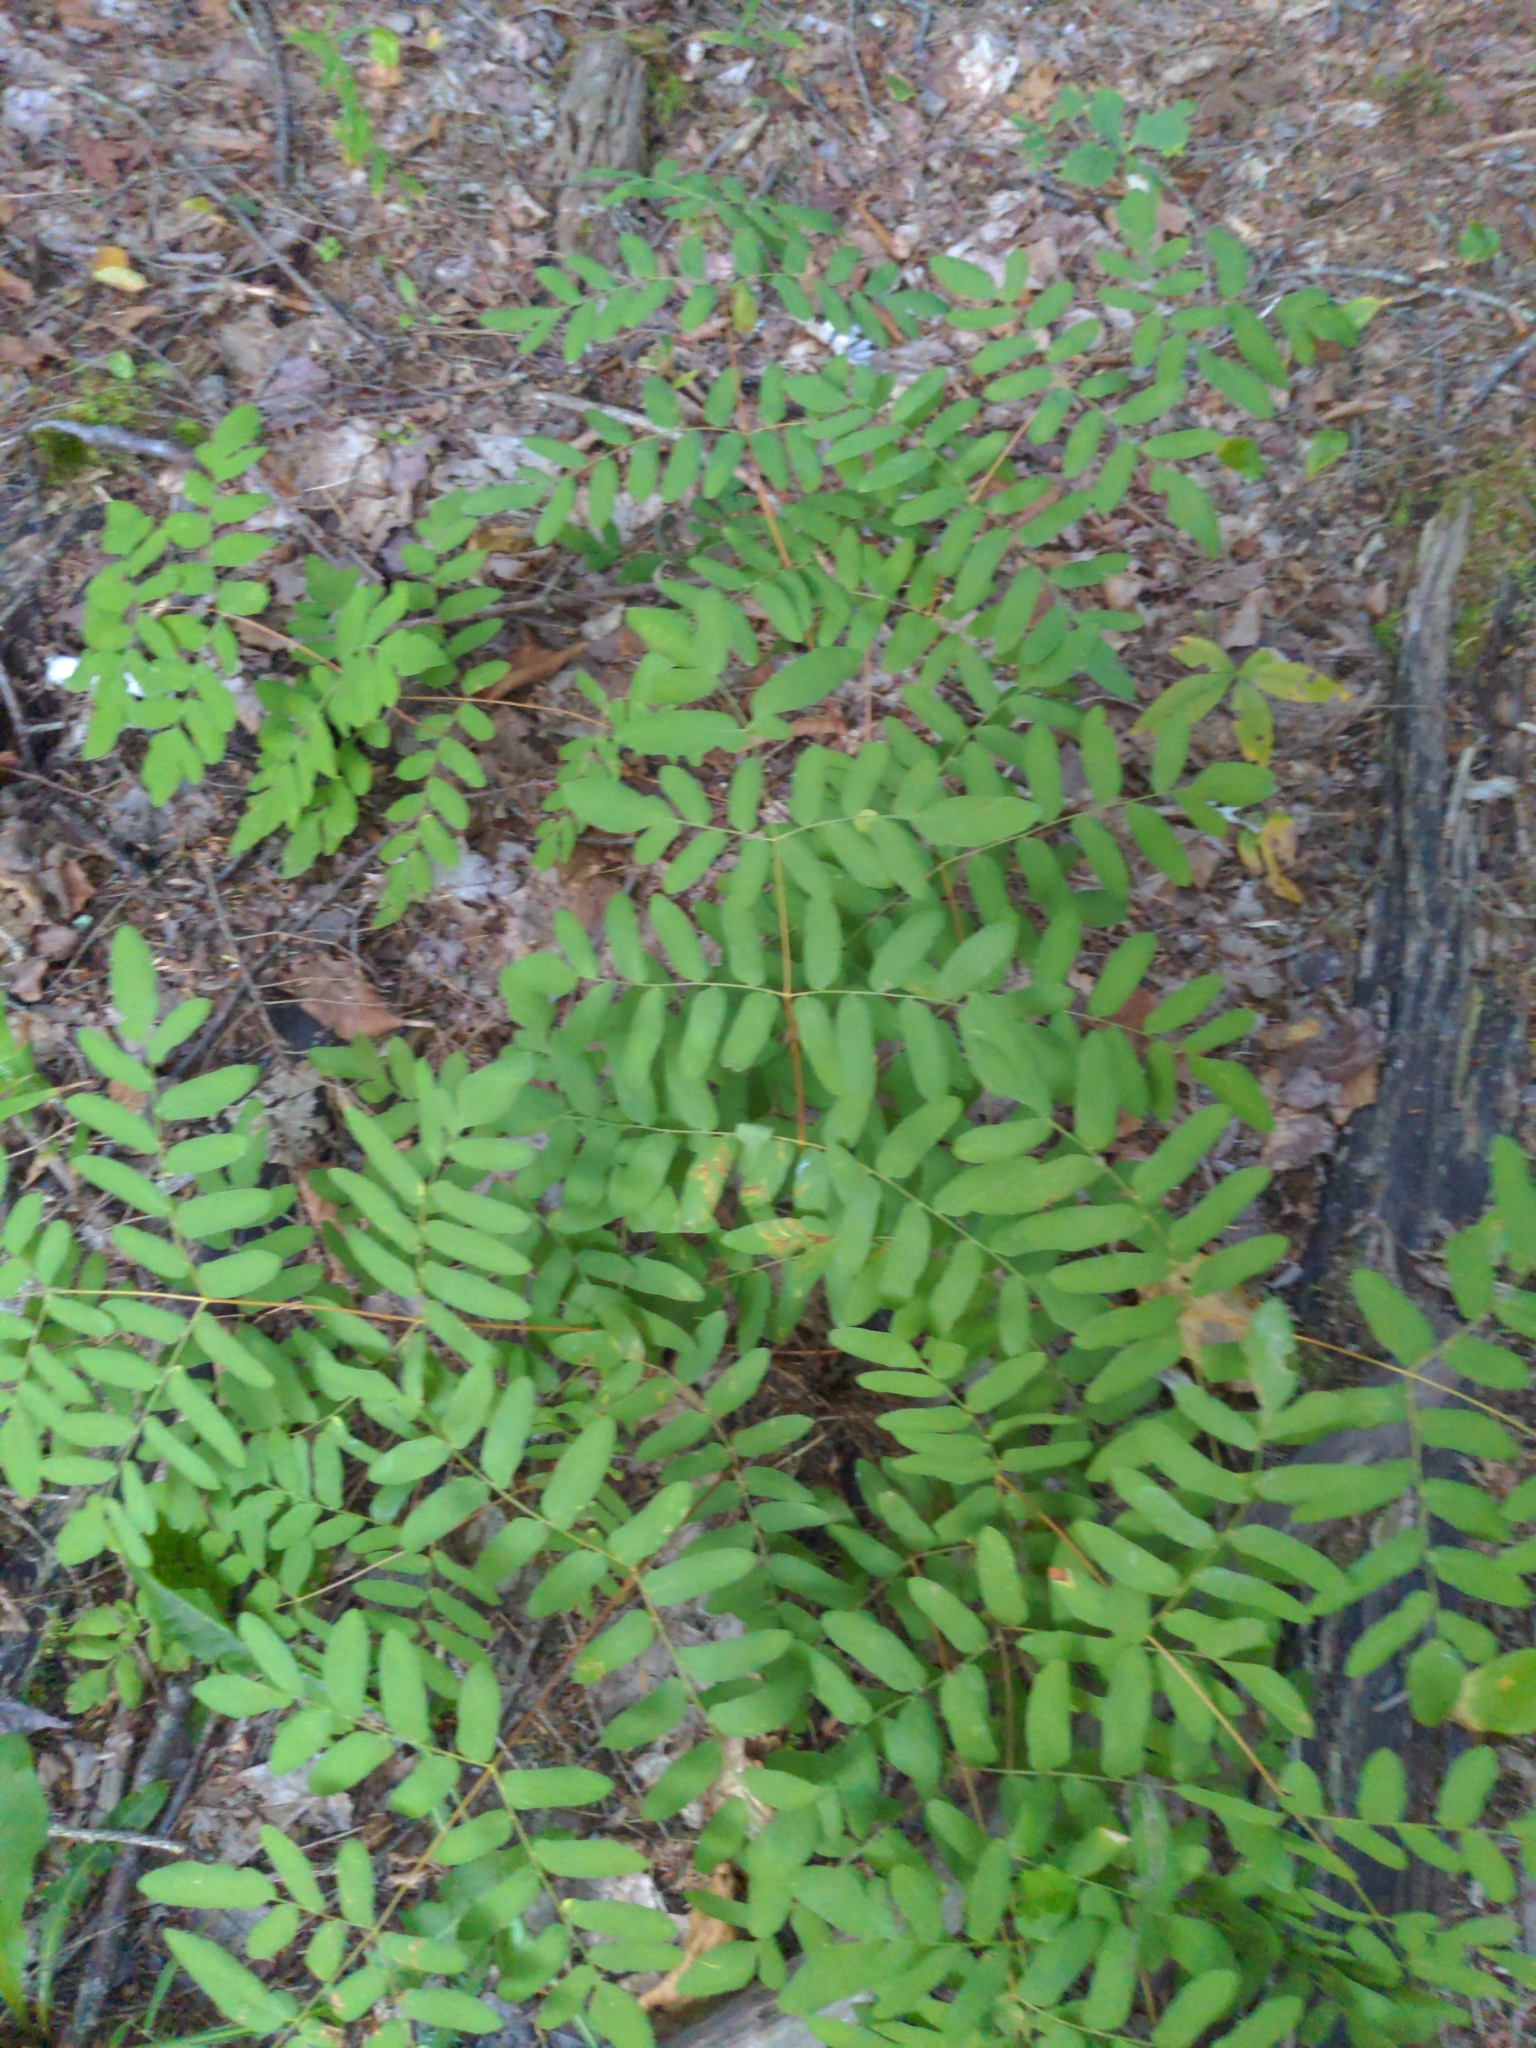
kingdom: Plantae
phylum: Tracheophyta
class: Polypodiopsida
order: Osmundales
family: Osmundaceae
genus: Osmunda
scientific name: Osmunda spectabilis
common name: American royal fern
